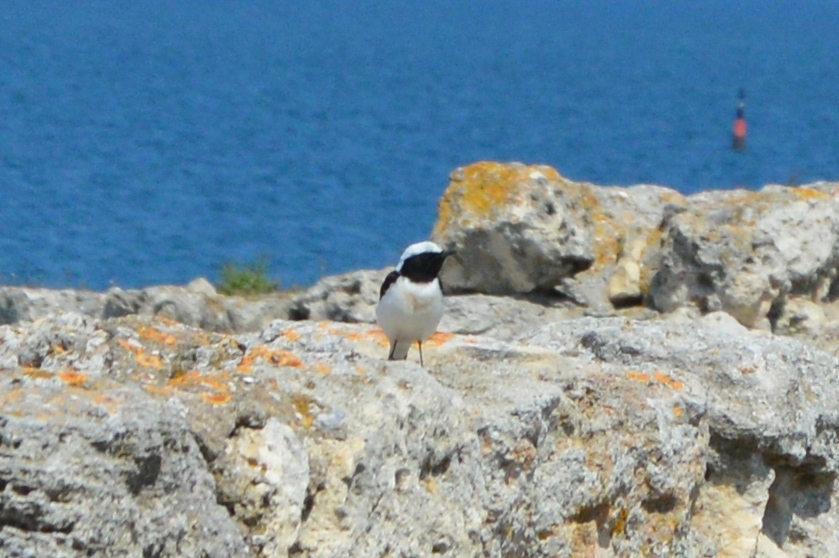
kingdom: Animalia
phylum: Chordata
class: Aves
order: Passeriformes
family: Muscicapidae
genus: Oenanthe
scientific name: Oenanthe pleschanka
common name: Pied wheatear
